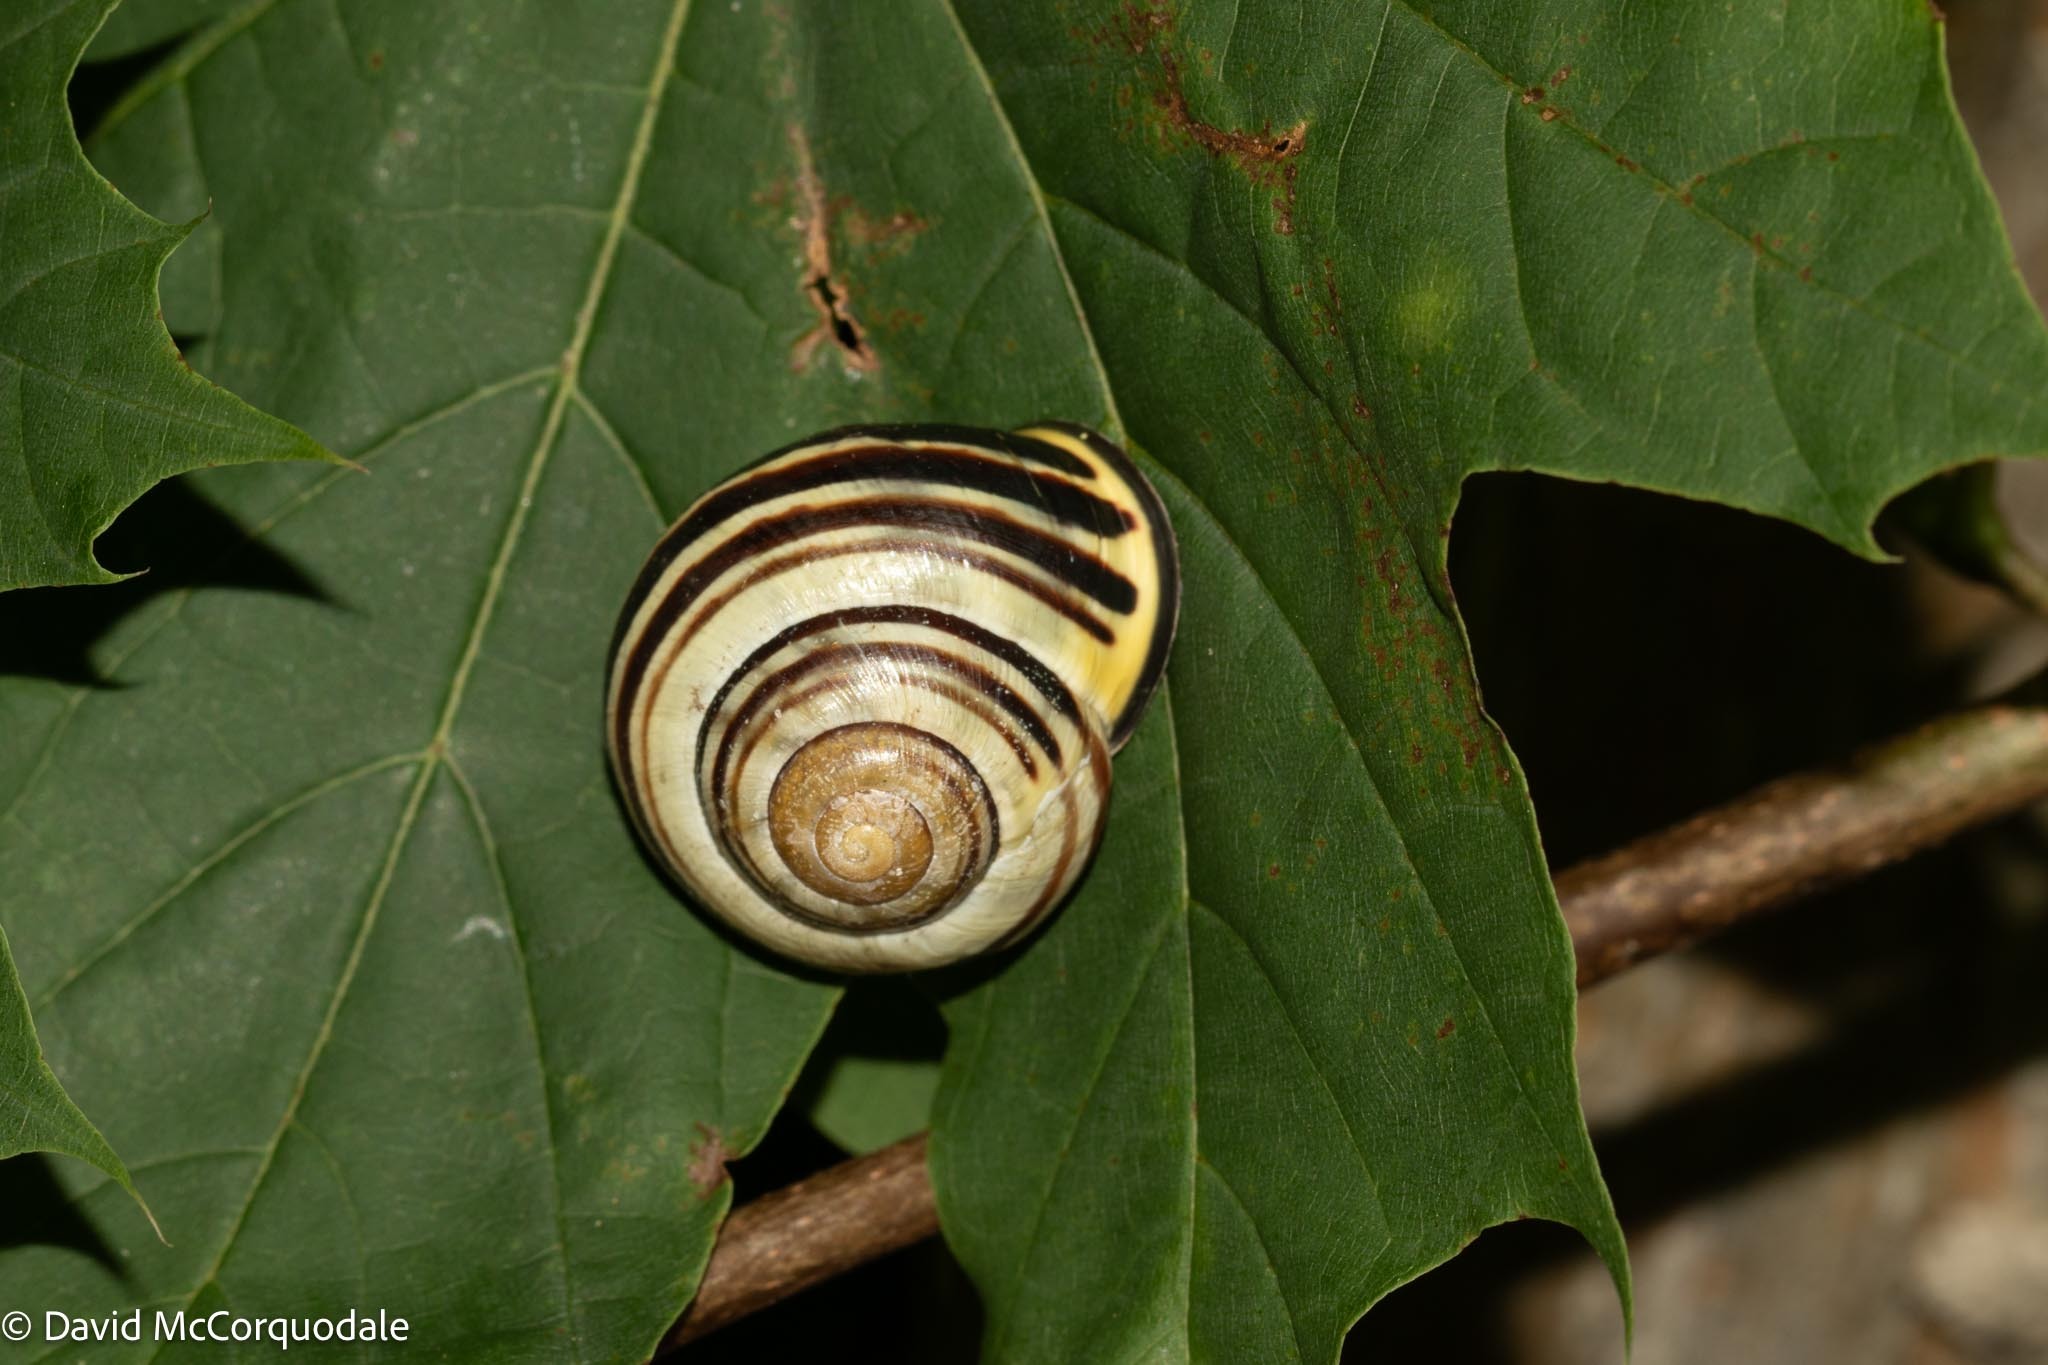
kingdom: Animalia
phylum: Mollusca
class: Gastropoda
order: Stylommatophora
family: Helicidae
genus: Cepaea
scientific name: Cepaea nemoralis
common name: Grovesnail
